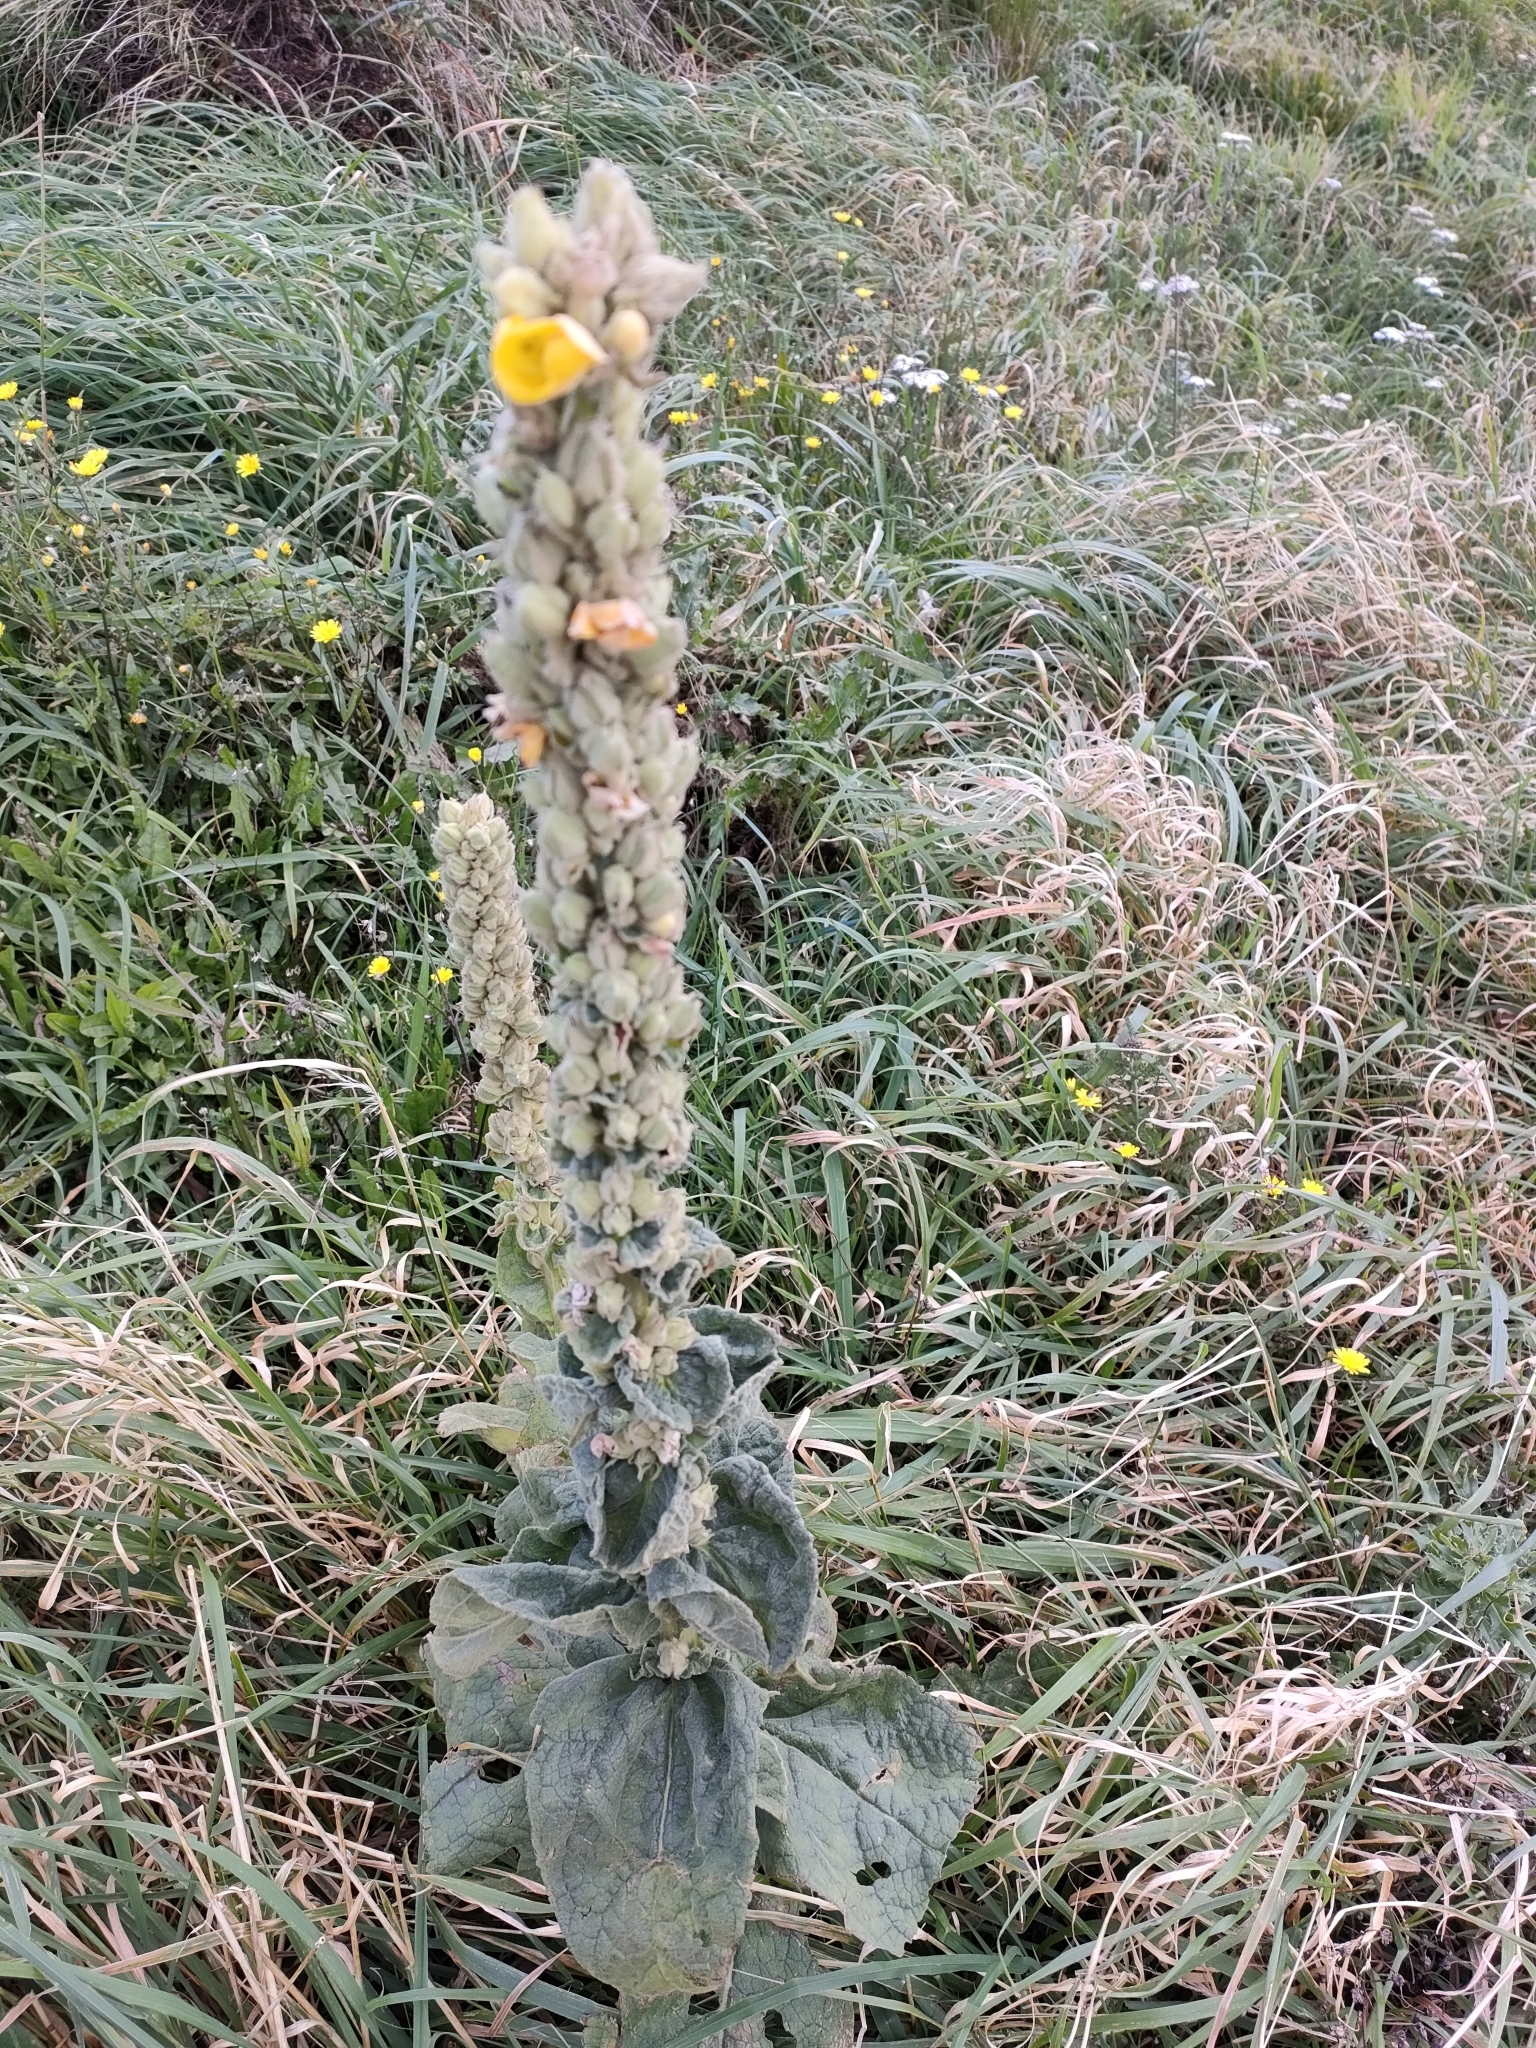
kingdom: Plantae
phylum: Tracheophyta
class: Magnoliopsida
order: Lamiales
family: Scrophulariaceae
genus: Verbascum
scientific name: Verbascum virgatum
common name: Twiggy mullein
